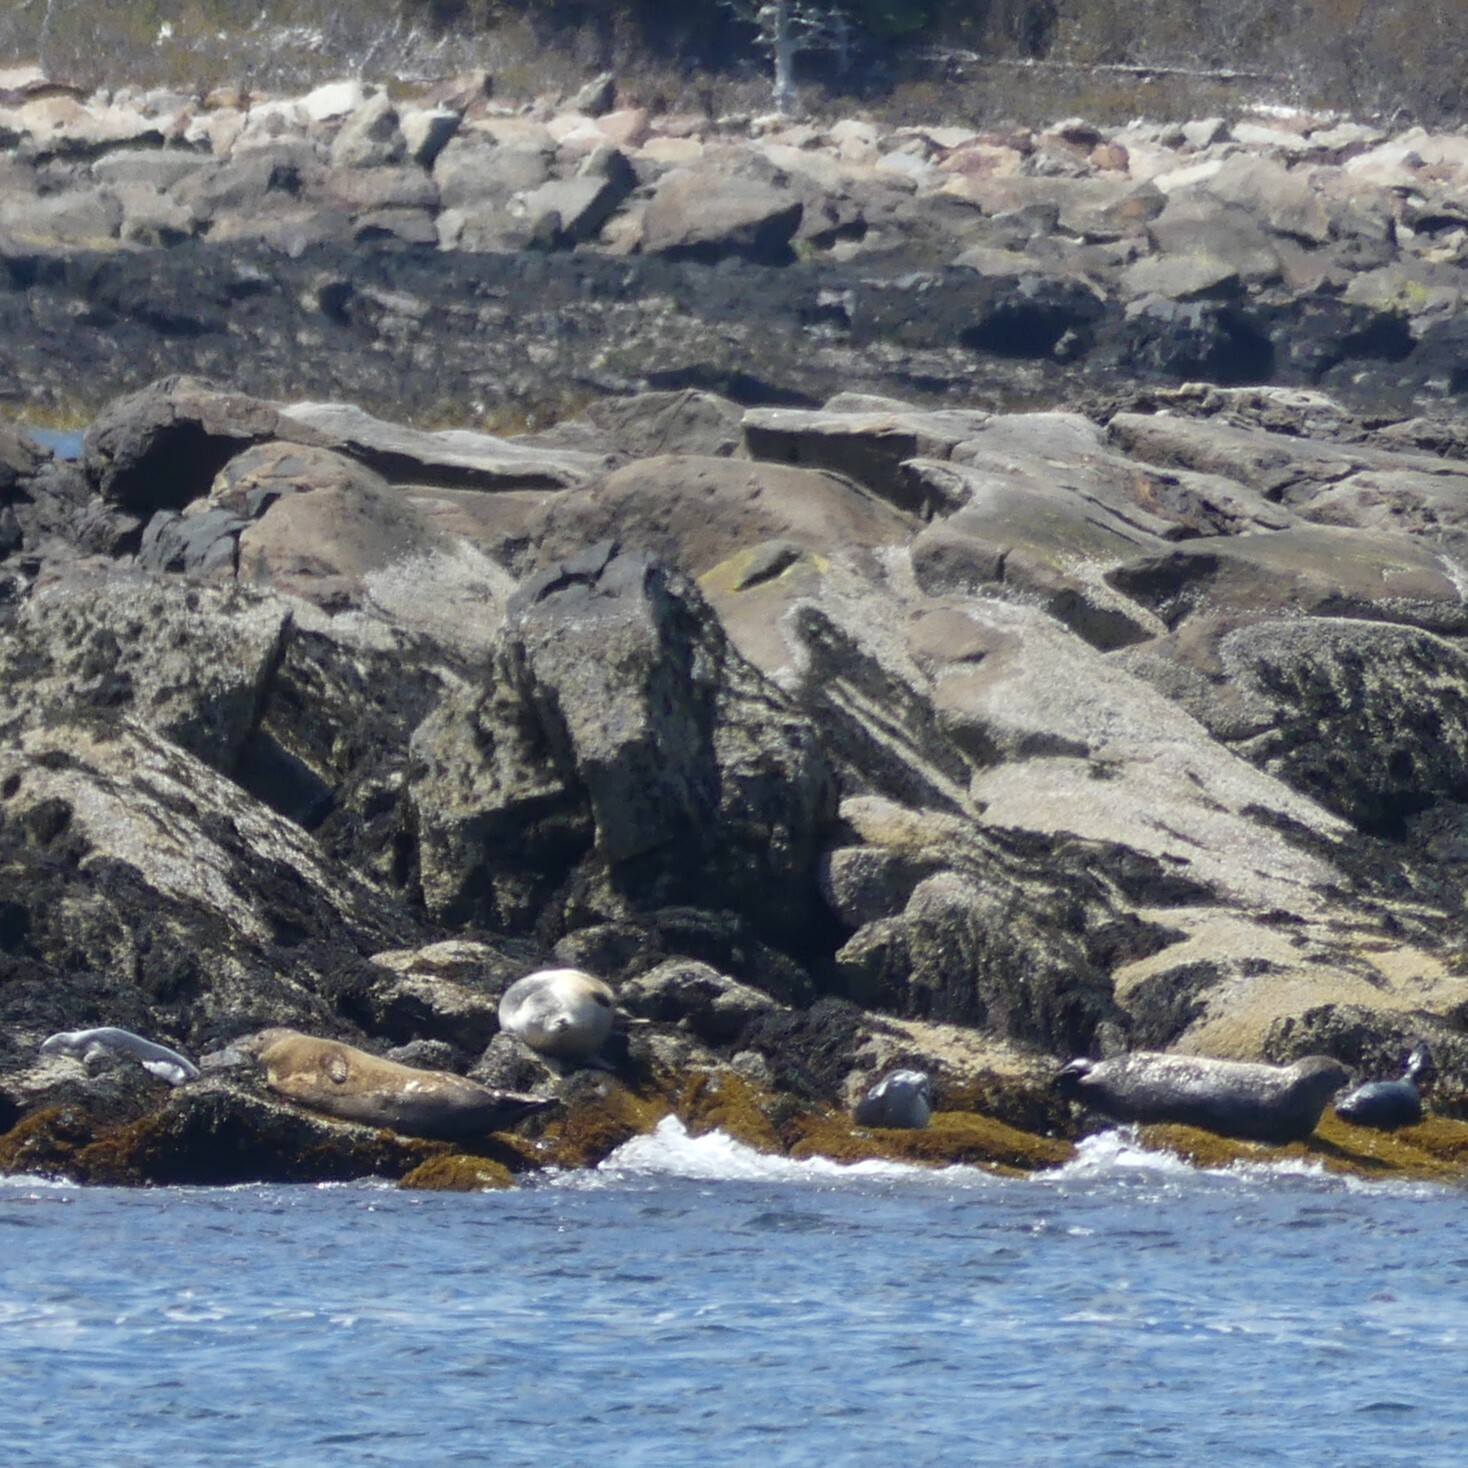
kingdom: Animalia
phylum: Chordata
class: Mammalia
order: Carnivora
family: Phocidae
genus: Phoca
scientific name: Phoca vitulina
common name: Harbor seal
